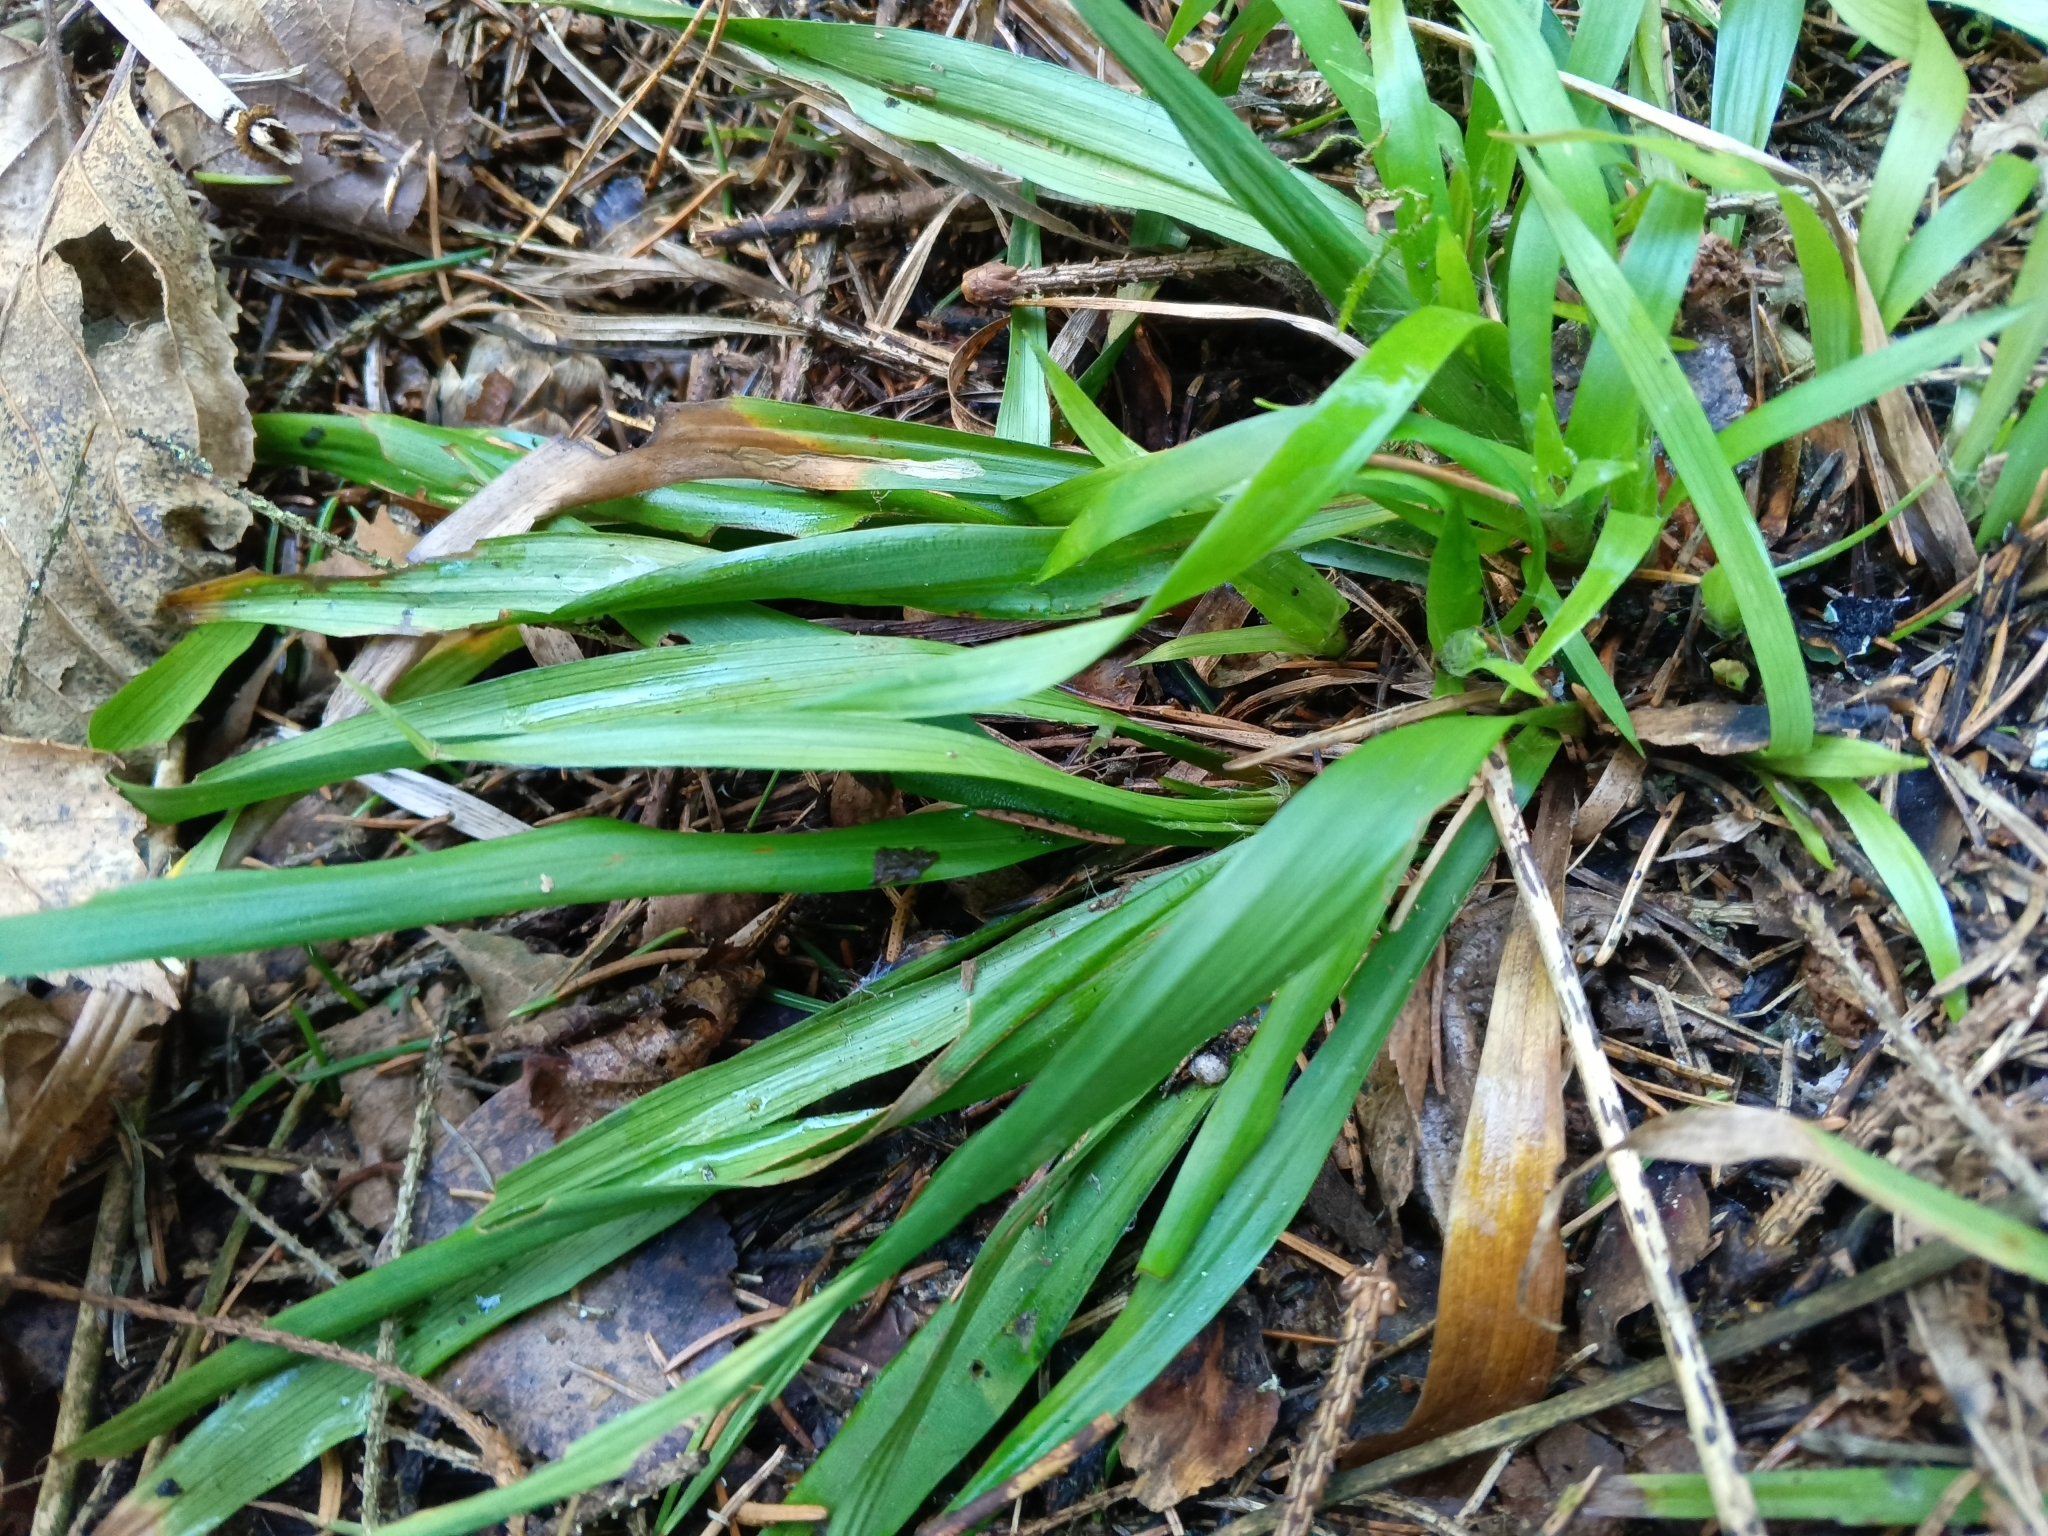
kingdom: Plantae
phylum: Tracheophyta
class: Liliopsida
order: Poales
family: Juncaceae
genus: Luzula
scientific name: Luzula pilosa
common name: Hairy wood-rush
